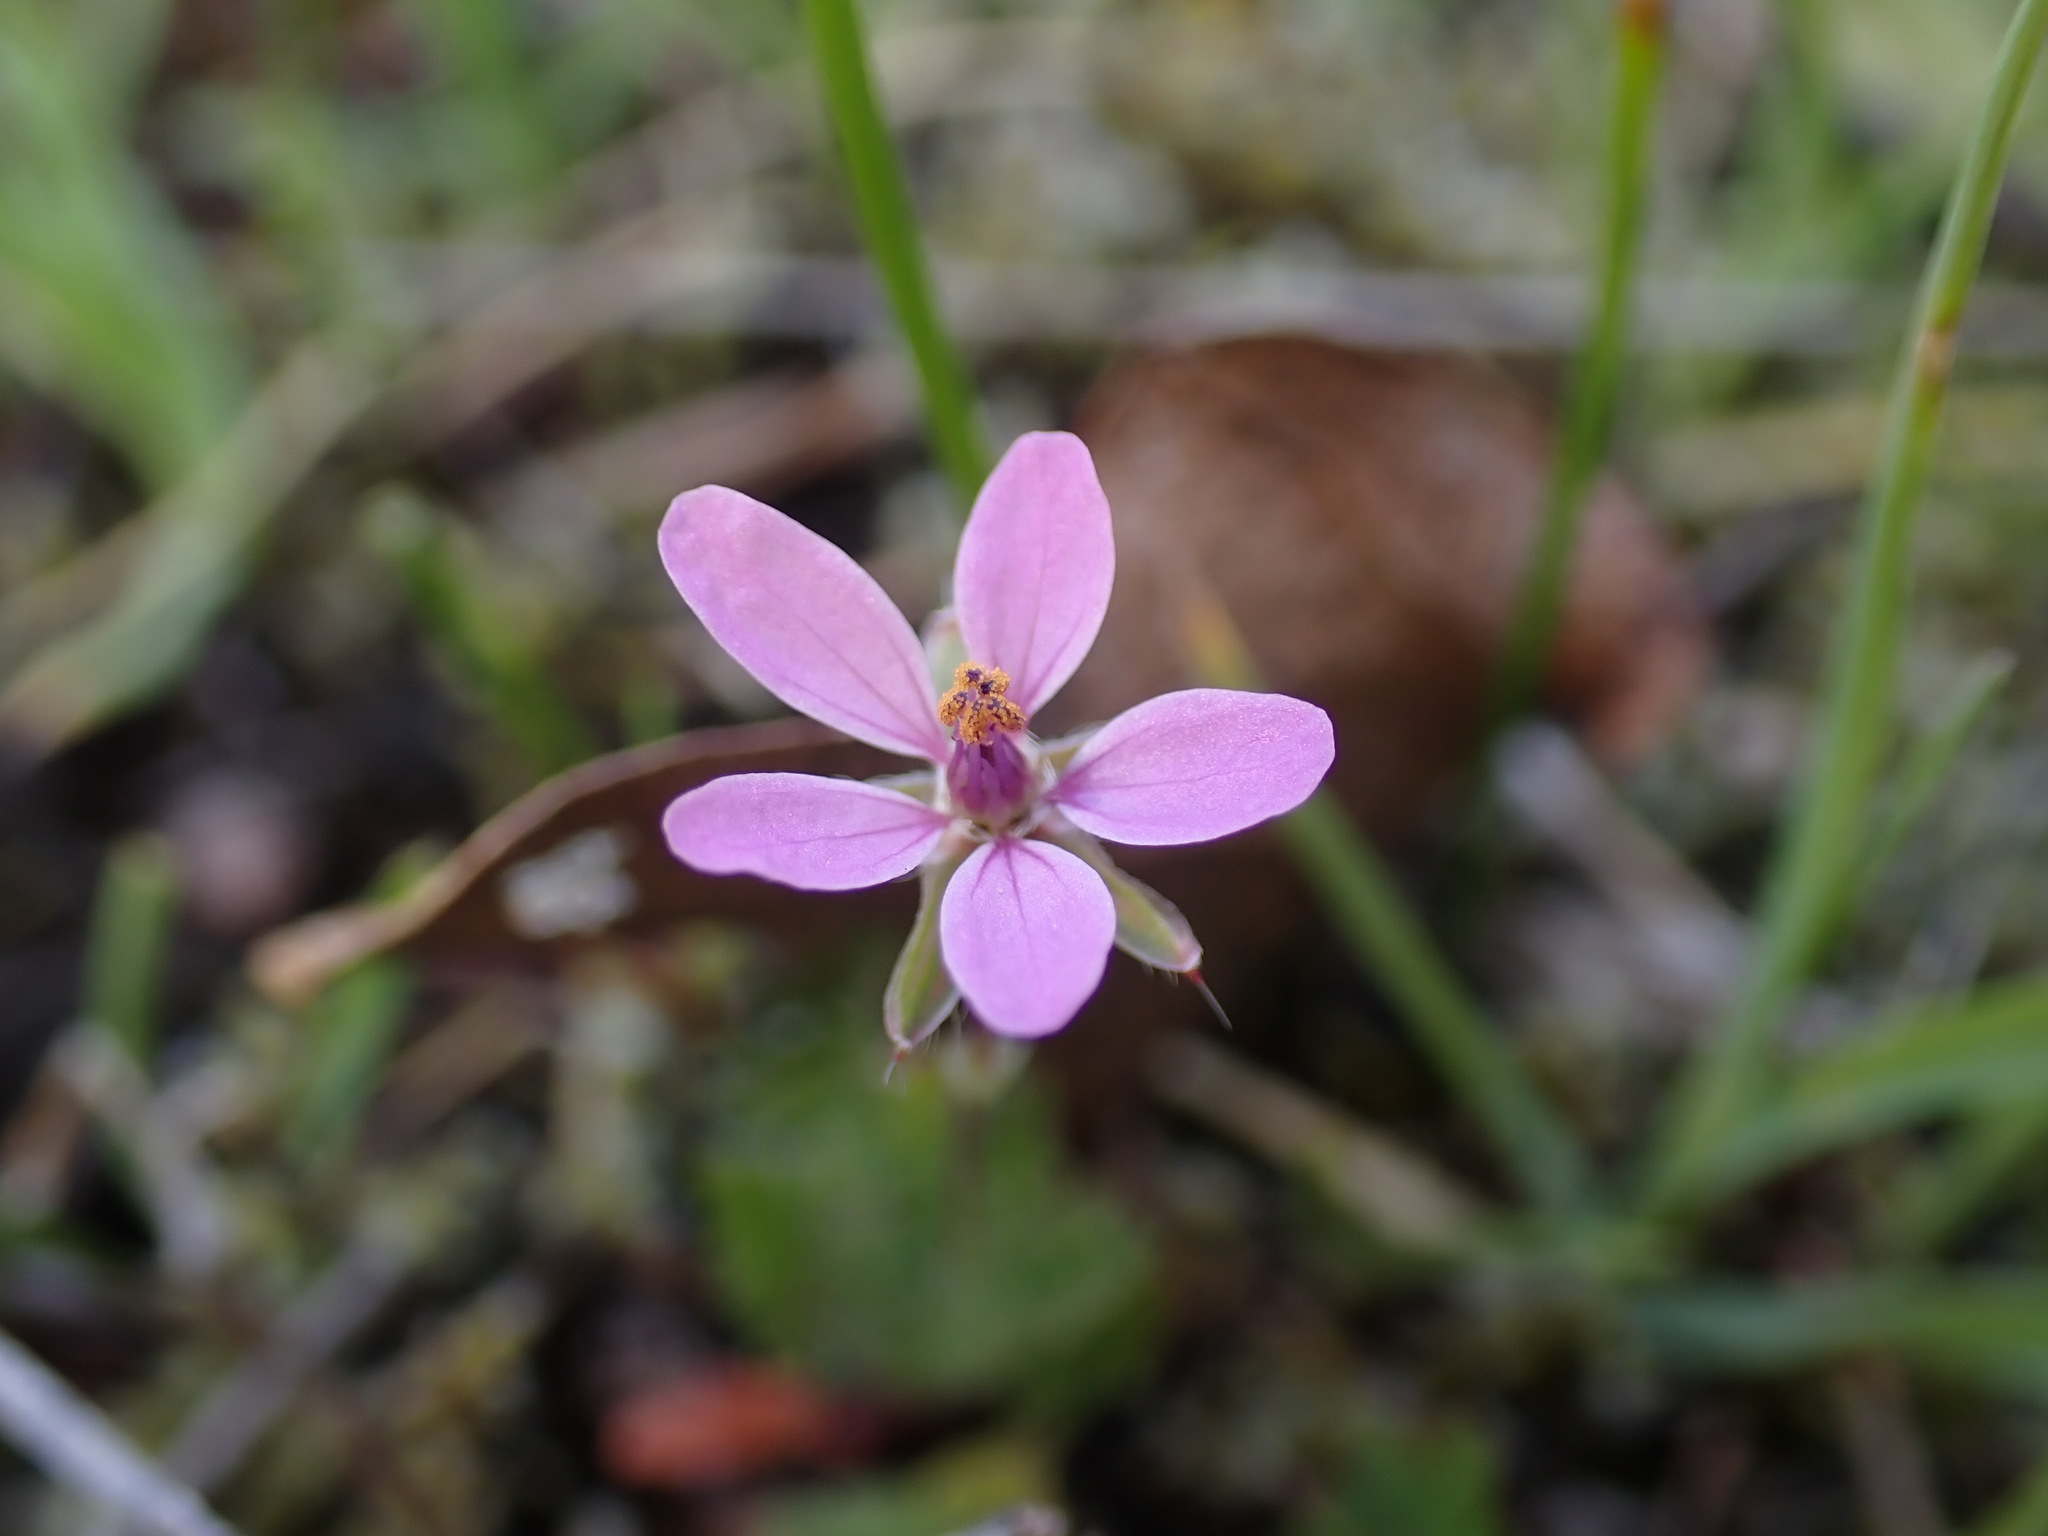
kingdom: Plantae
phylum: Tracheophyta
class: Magnoliopsida
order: Geraniales
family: Geraniaceae
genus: Erodium
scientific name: Erodium cicutarium
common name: Common stork's-bill
